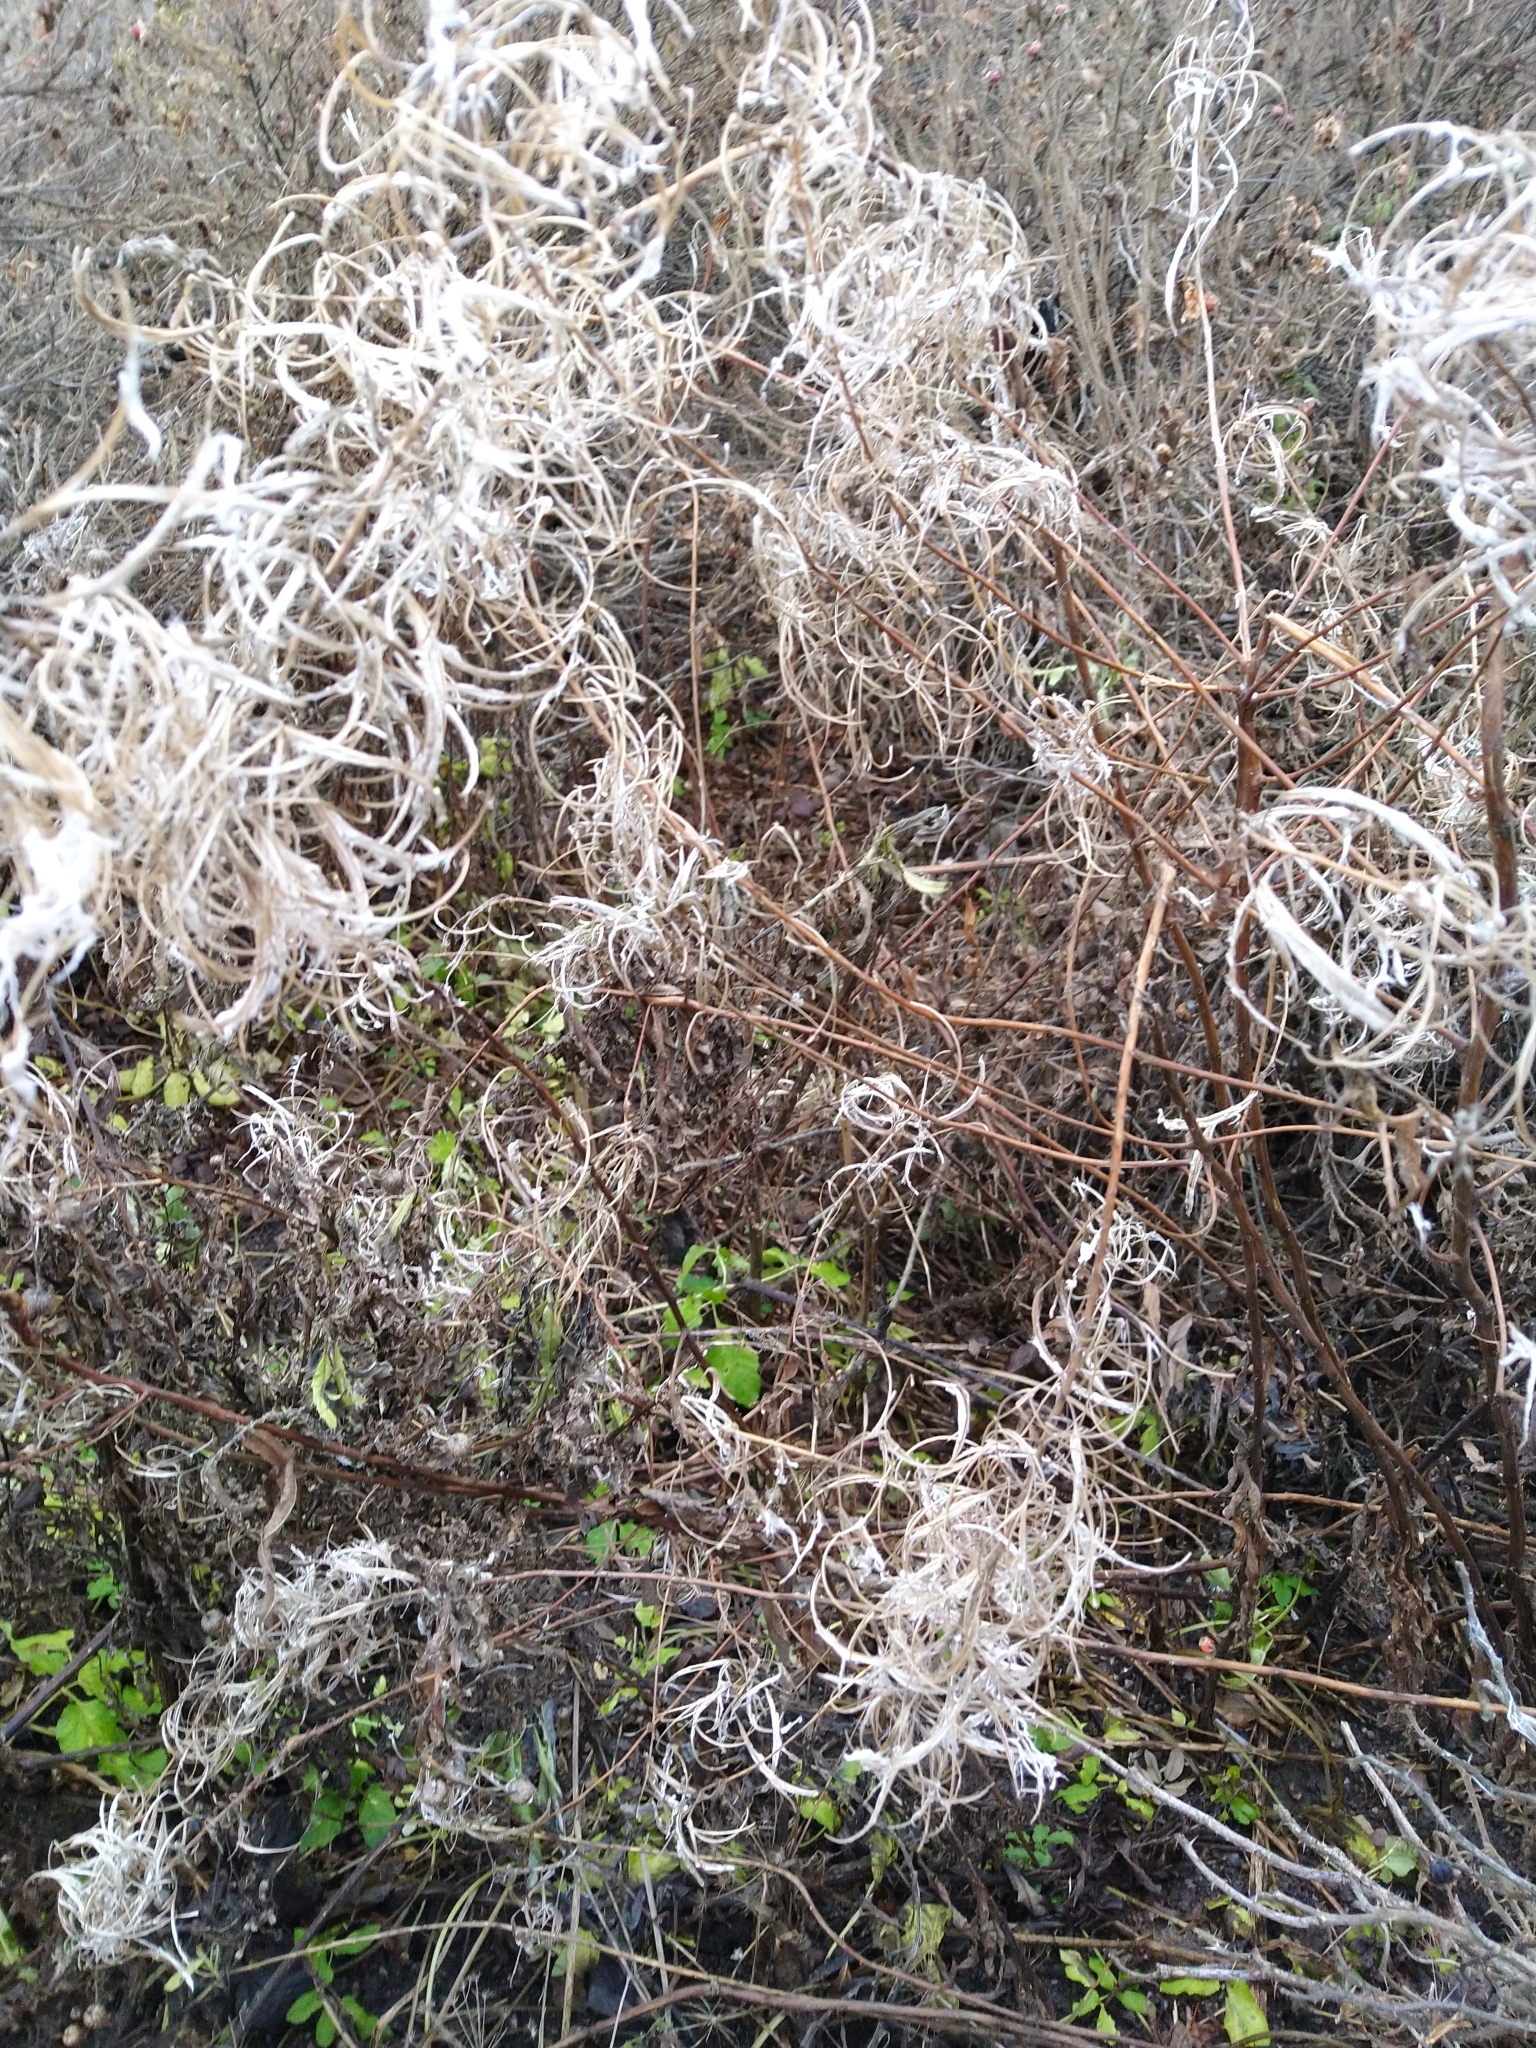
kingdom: Plantae
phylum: Tracheophyta
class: Magnoliopsida
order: Myrtales
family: Onagraceae
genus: Chamaenerion
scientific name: Chamaenerion angustifolium
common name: Fireweed
